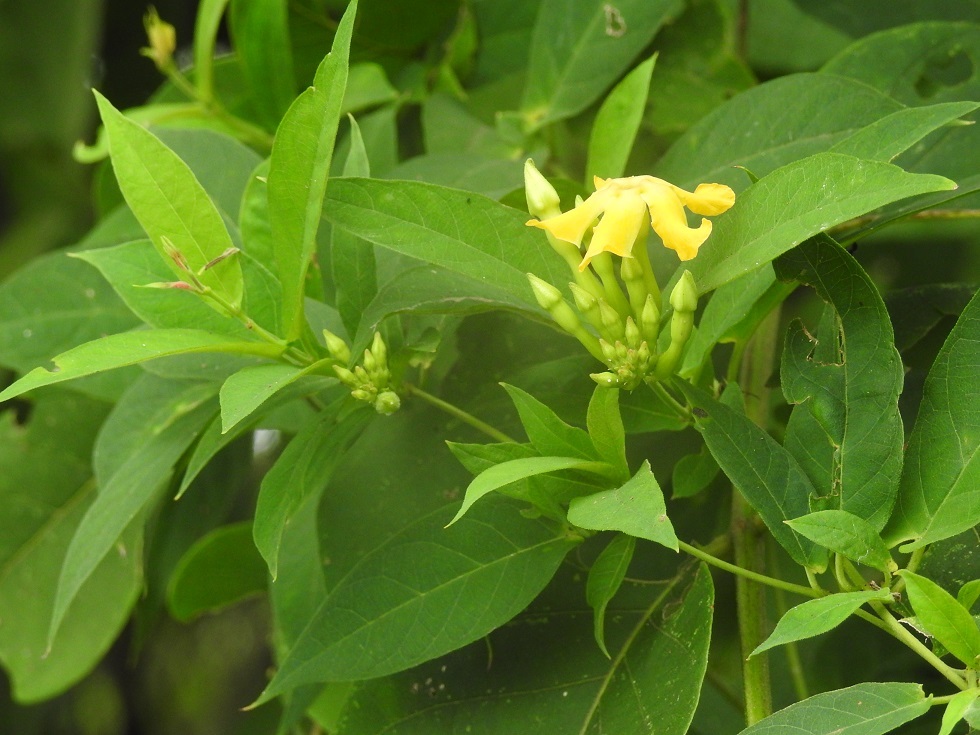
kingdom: Plantae
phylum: Tracheophyta
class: Magnoliopsida
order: Gentianales
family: Apocynaceae
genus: Mandevilla
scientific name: Mandevilla subsagittata
